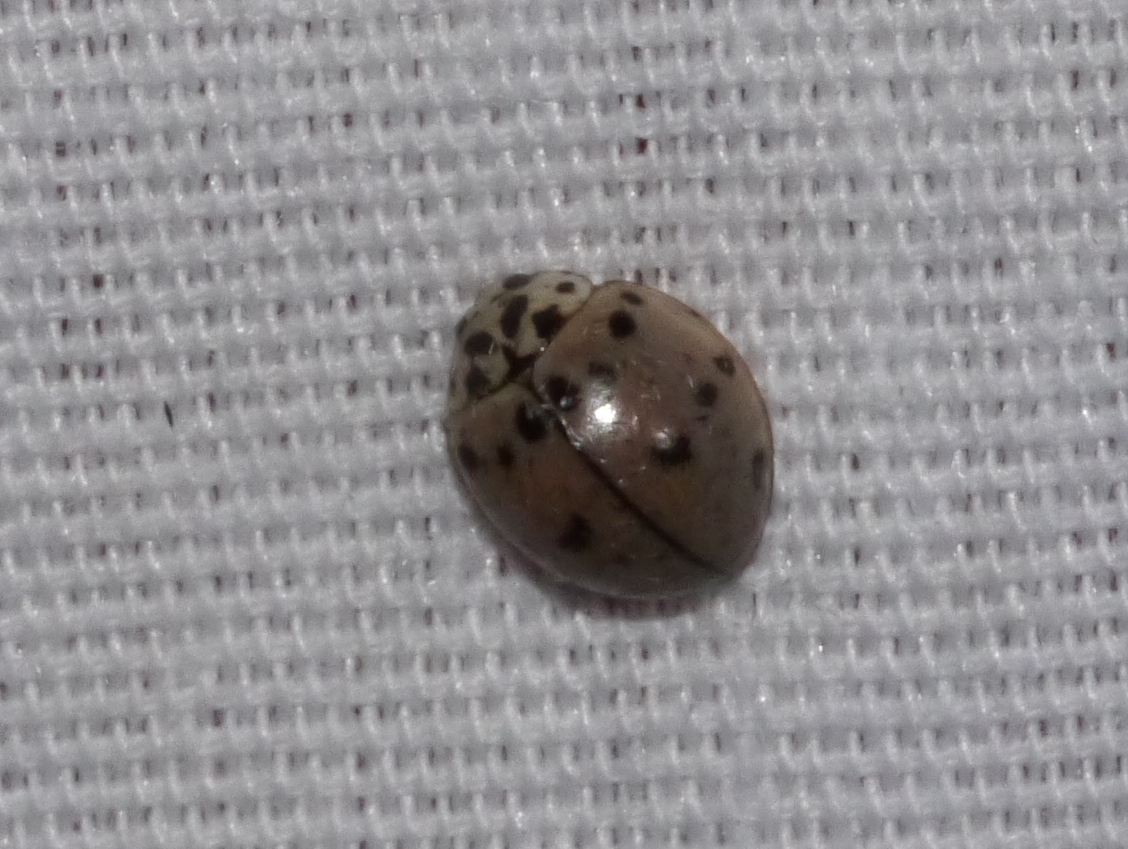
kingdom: Animalia
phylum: Arthropoda
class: Insecta
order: Coleoptera
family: Coccinellidae
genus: Olla
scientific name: Olla v-nigrum
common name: Ashy gray lady beetle
